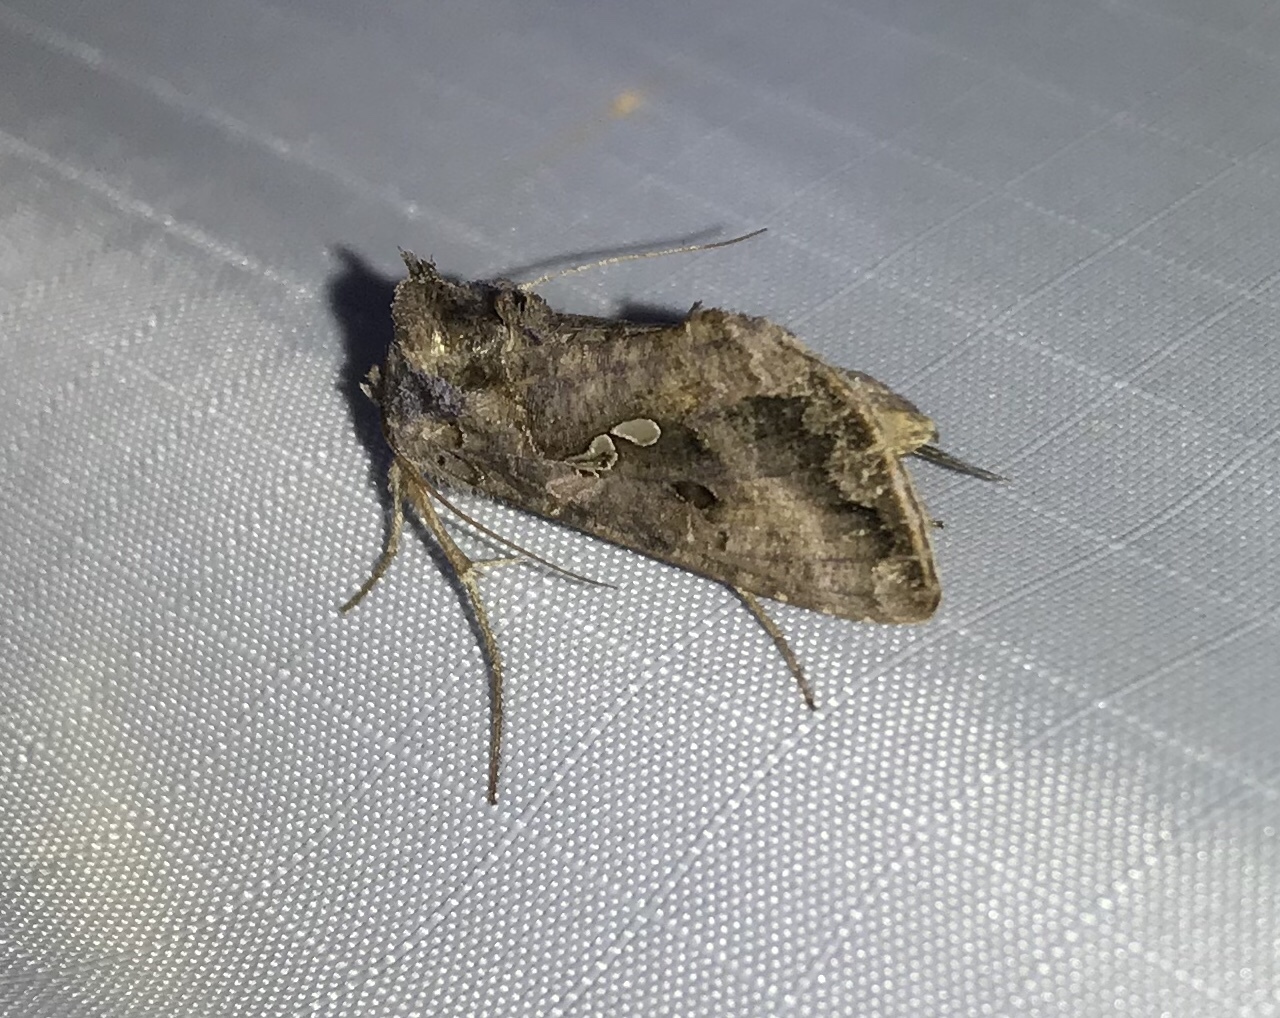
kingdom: Animalia
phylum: Arthropoda
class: Insecta
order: Lepidoptera
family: Noctuidae
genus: Autographa
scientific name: Autographa precationis
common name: Common looper moth
